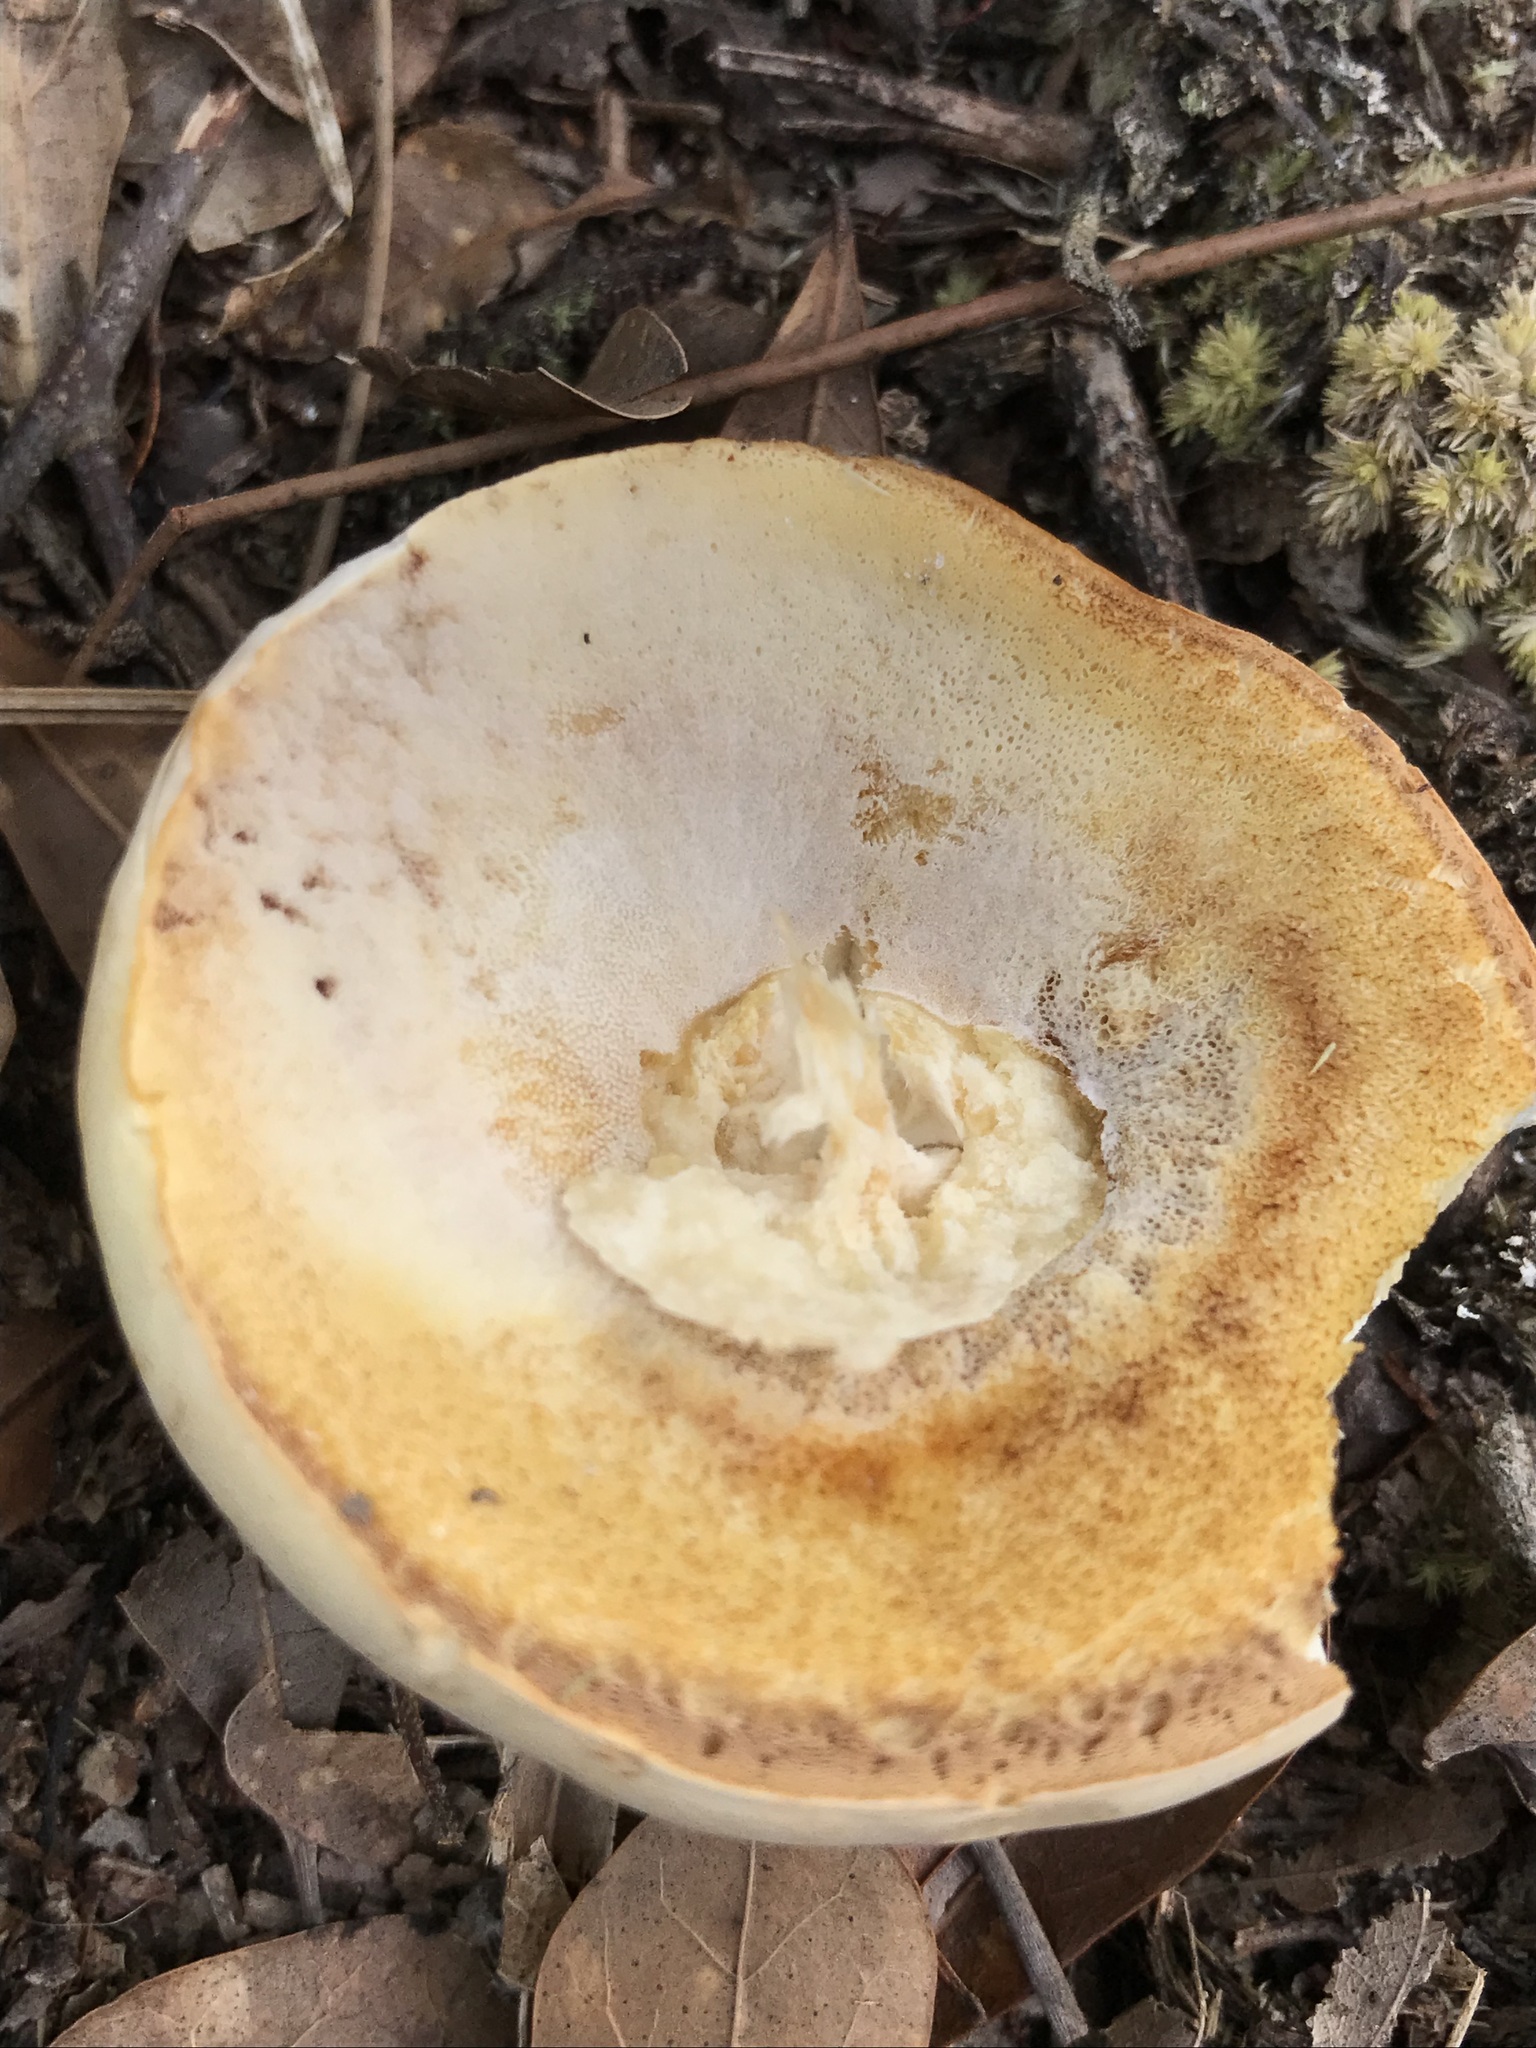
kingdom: Fungi
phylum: Basidiomycota
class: Agaricomycetes
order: Boletales
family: Boletaceae
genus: Xanthoconium
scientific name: Xanthoconium stramineum
